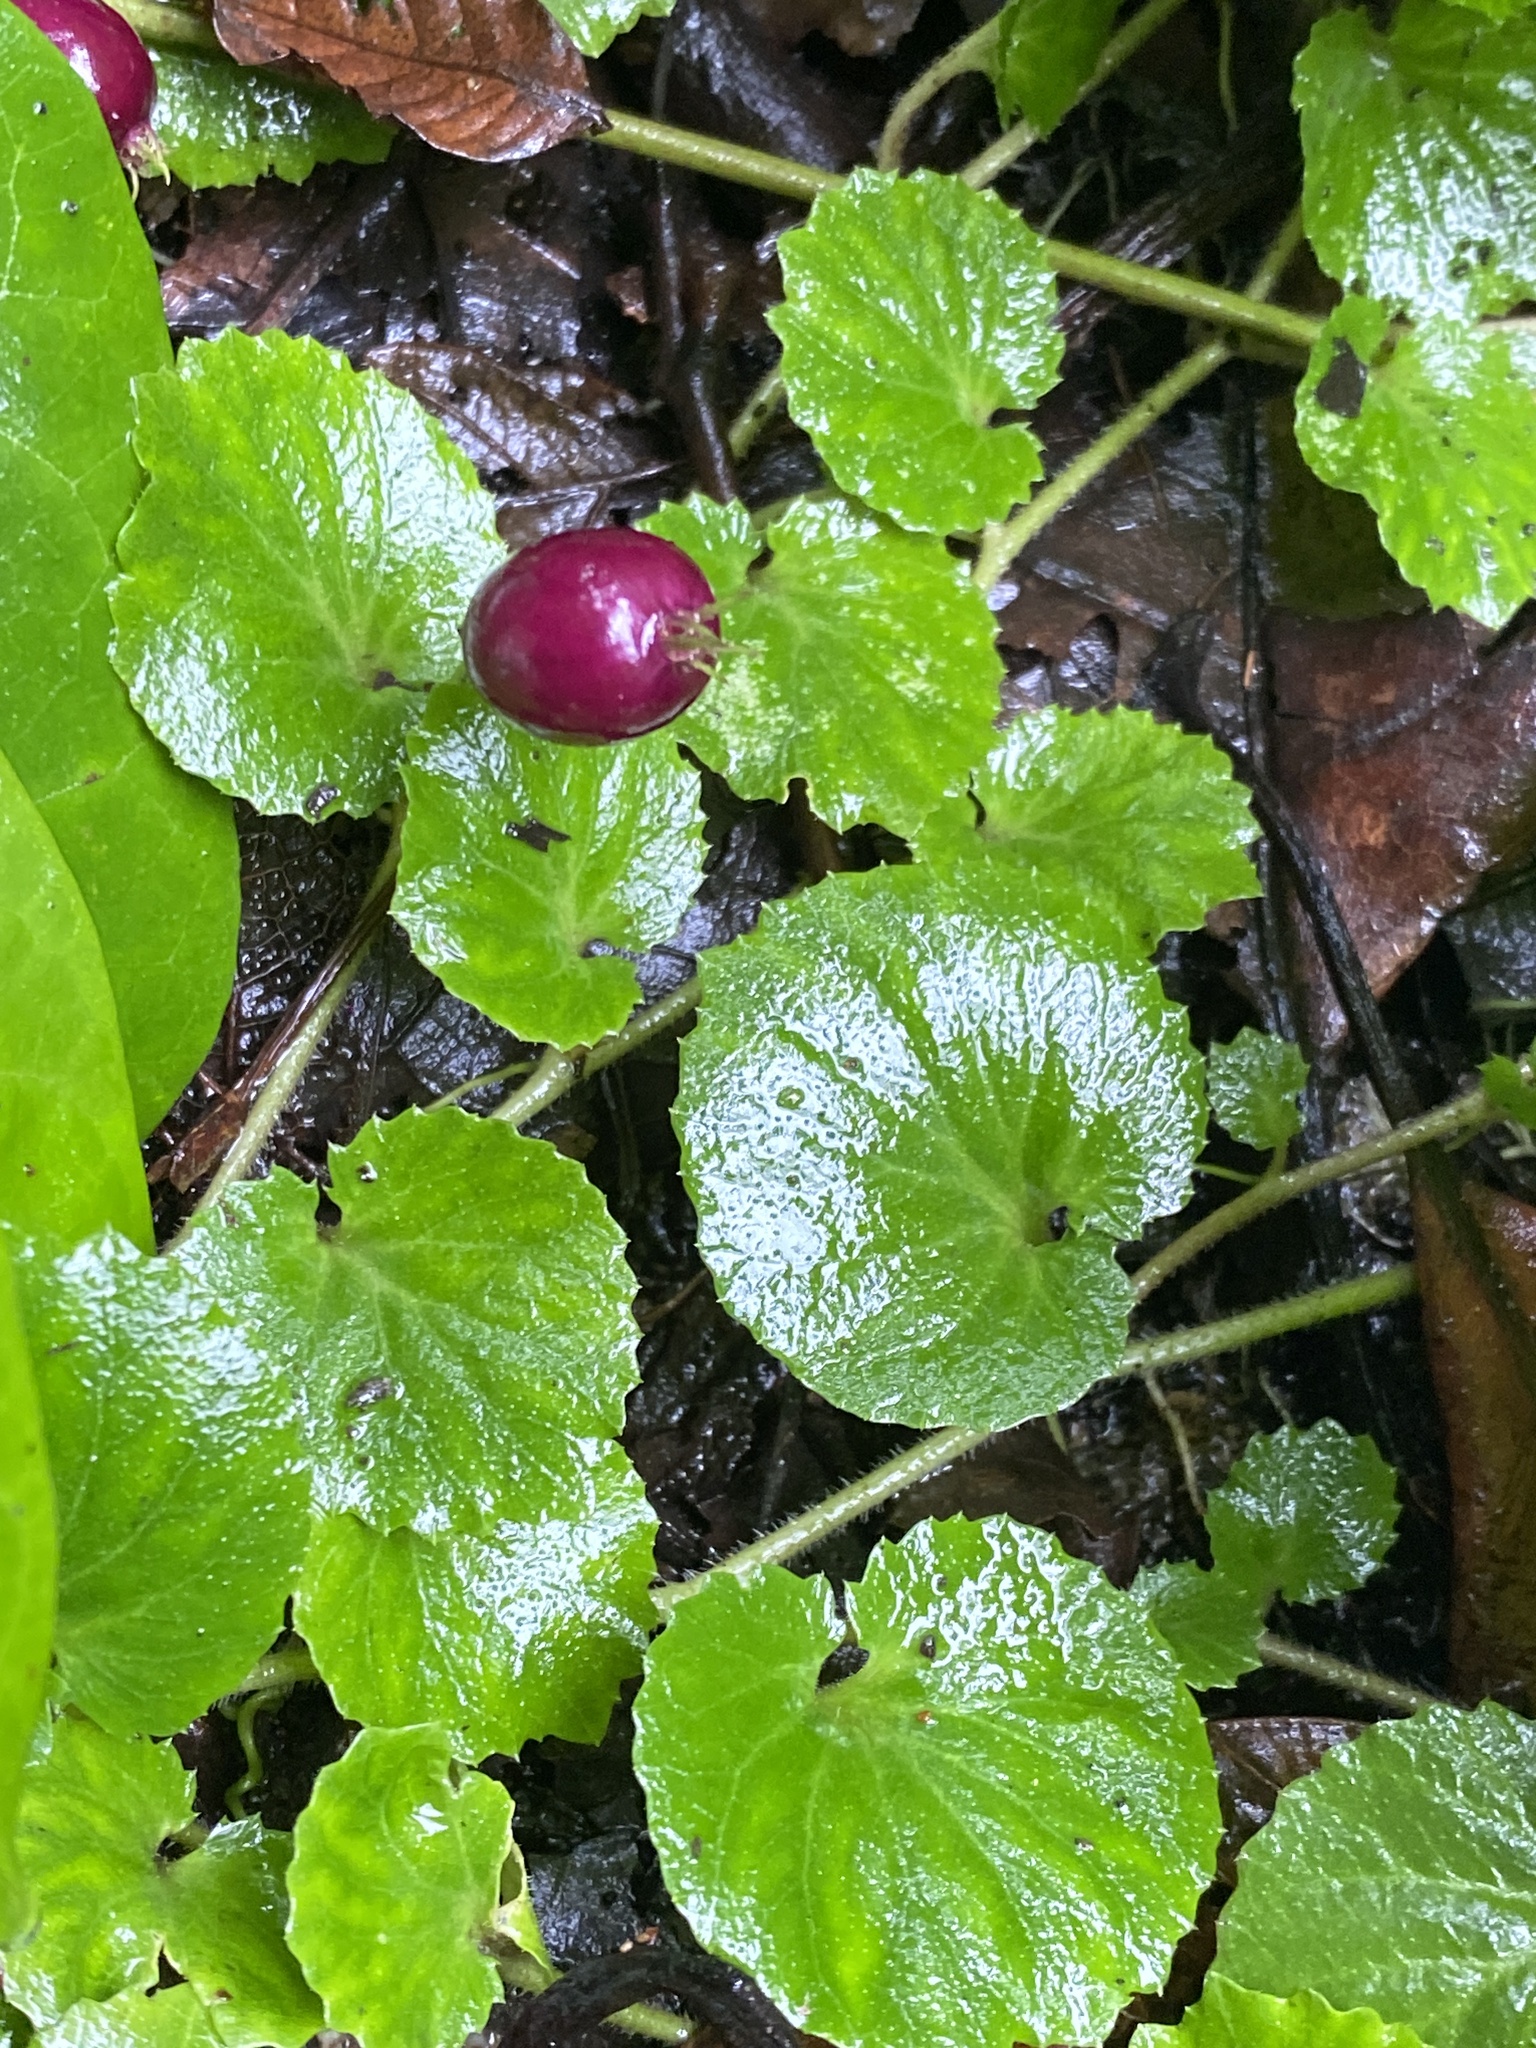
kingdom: Plantae
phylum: Tracheophyta
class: Magnoliopsida
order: Asterales
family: Campanulaceae
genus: Lobelia
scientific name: Lobelia nummularia
